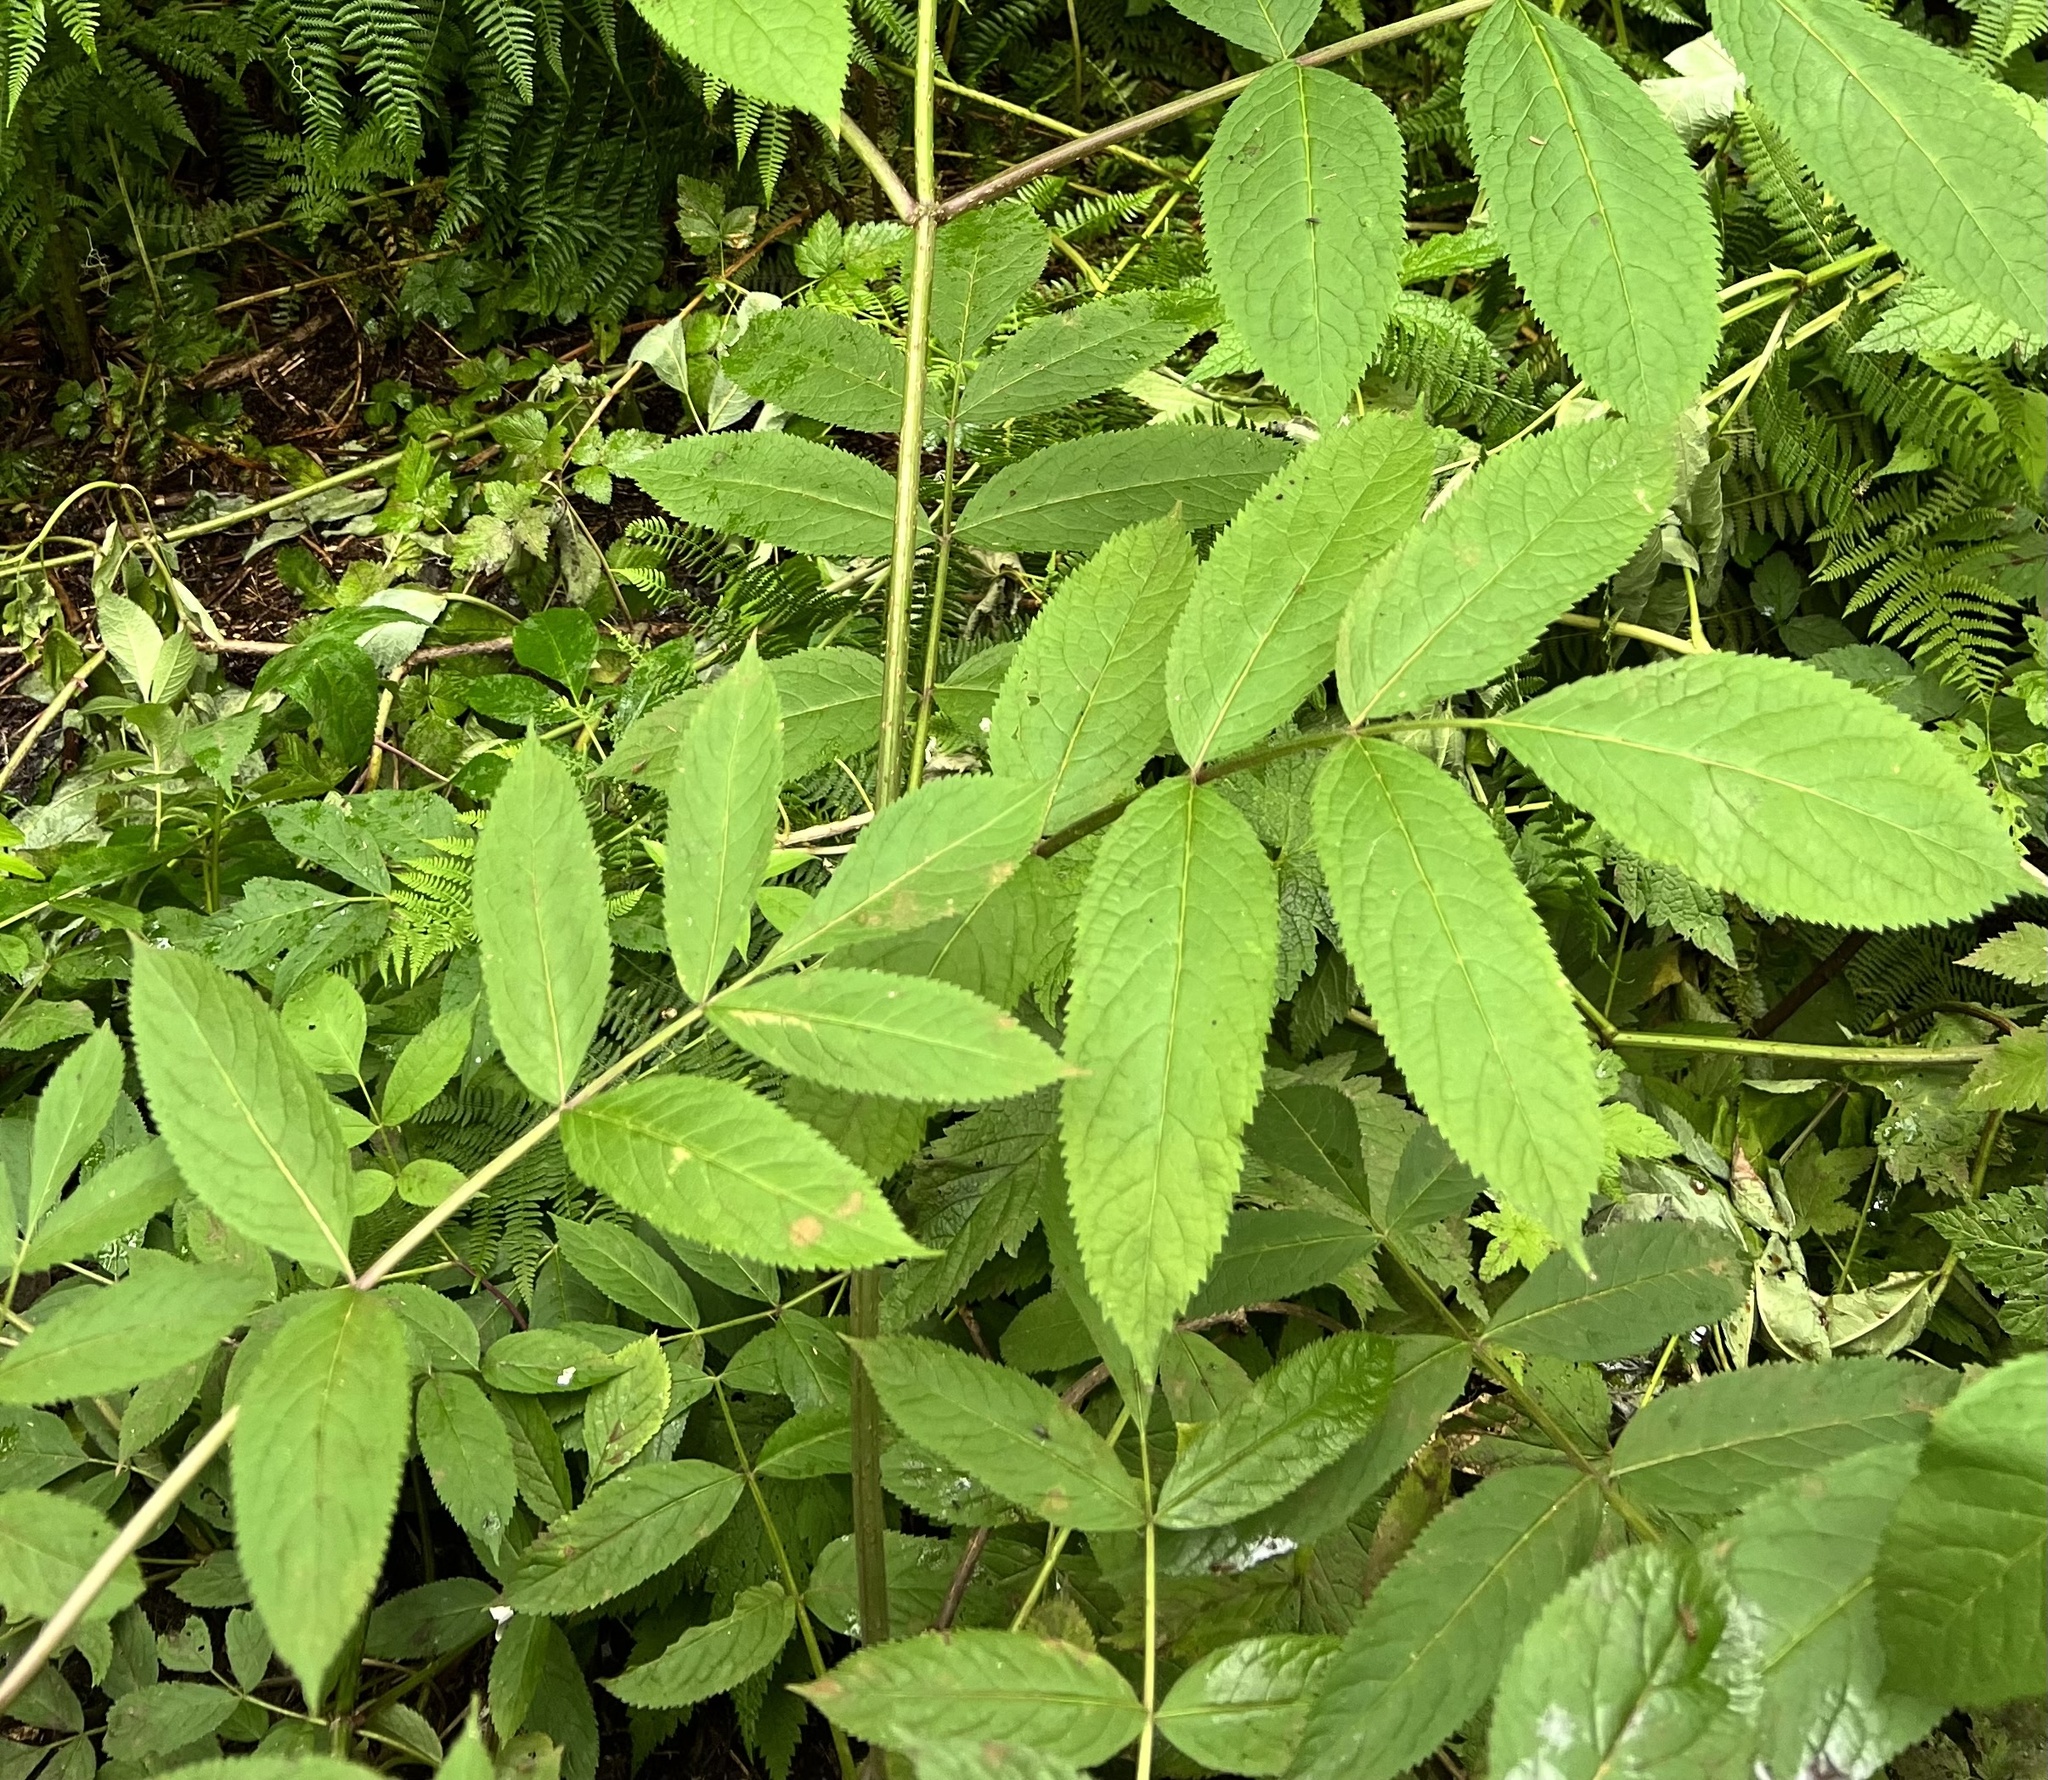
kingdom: Plantae
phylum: Tracheophyta
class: Magnoliopsida
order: Dipsacales
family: Viburnaceae
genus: Sambucus
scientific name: Sambucus racemosa
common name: Red-berried elder
